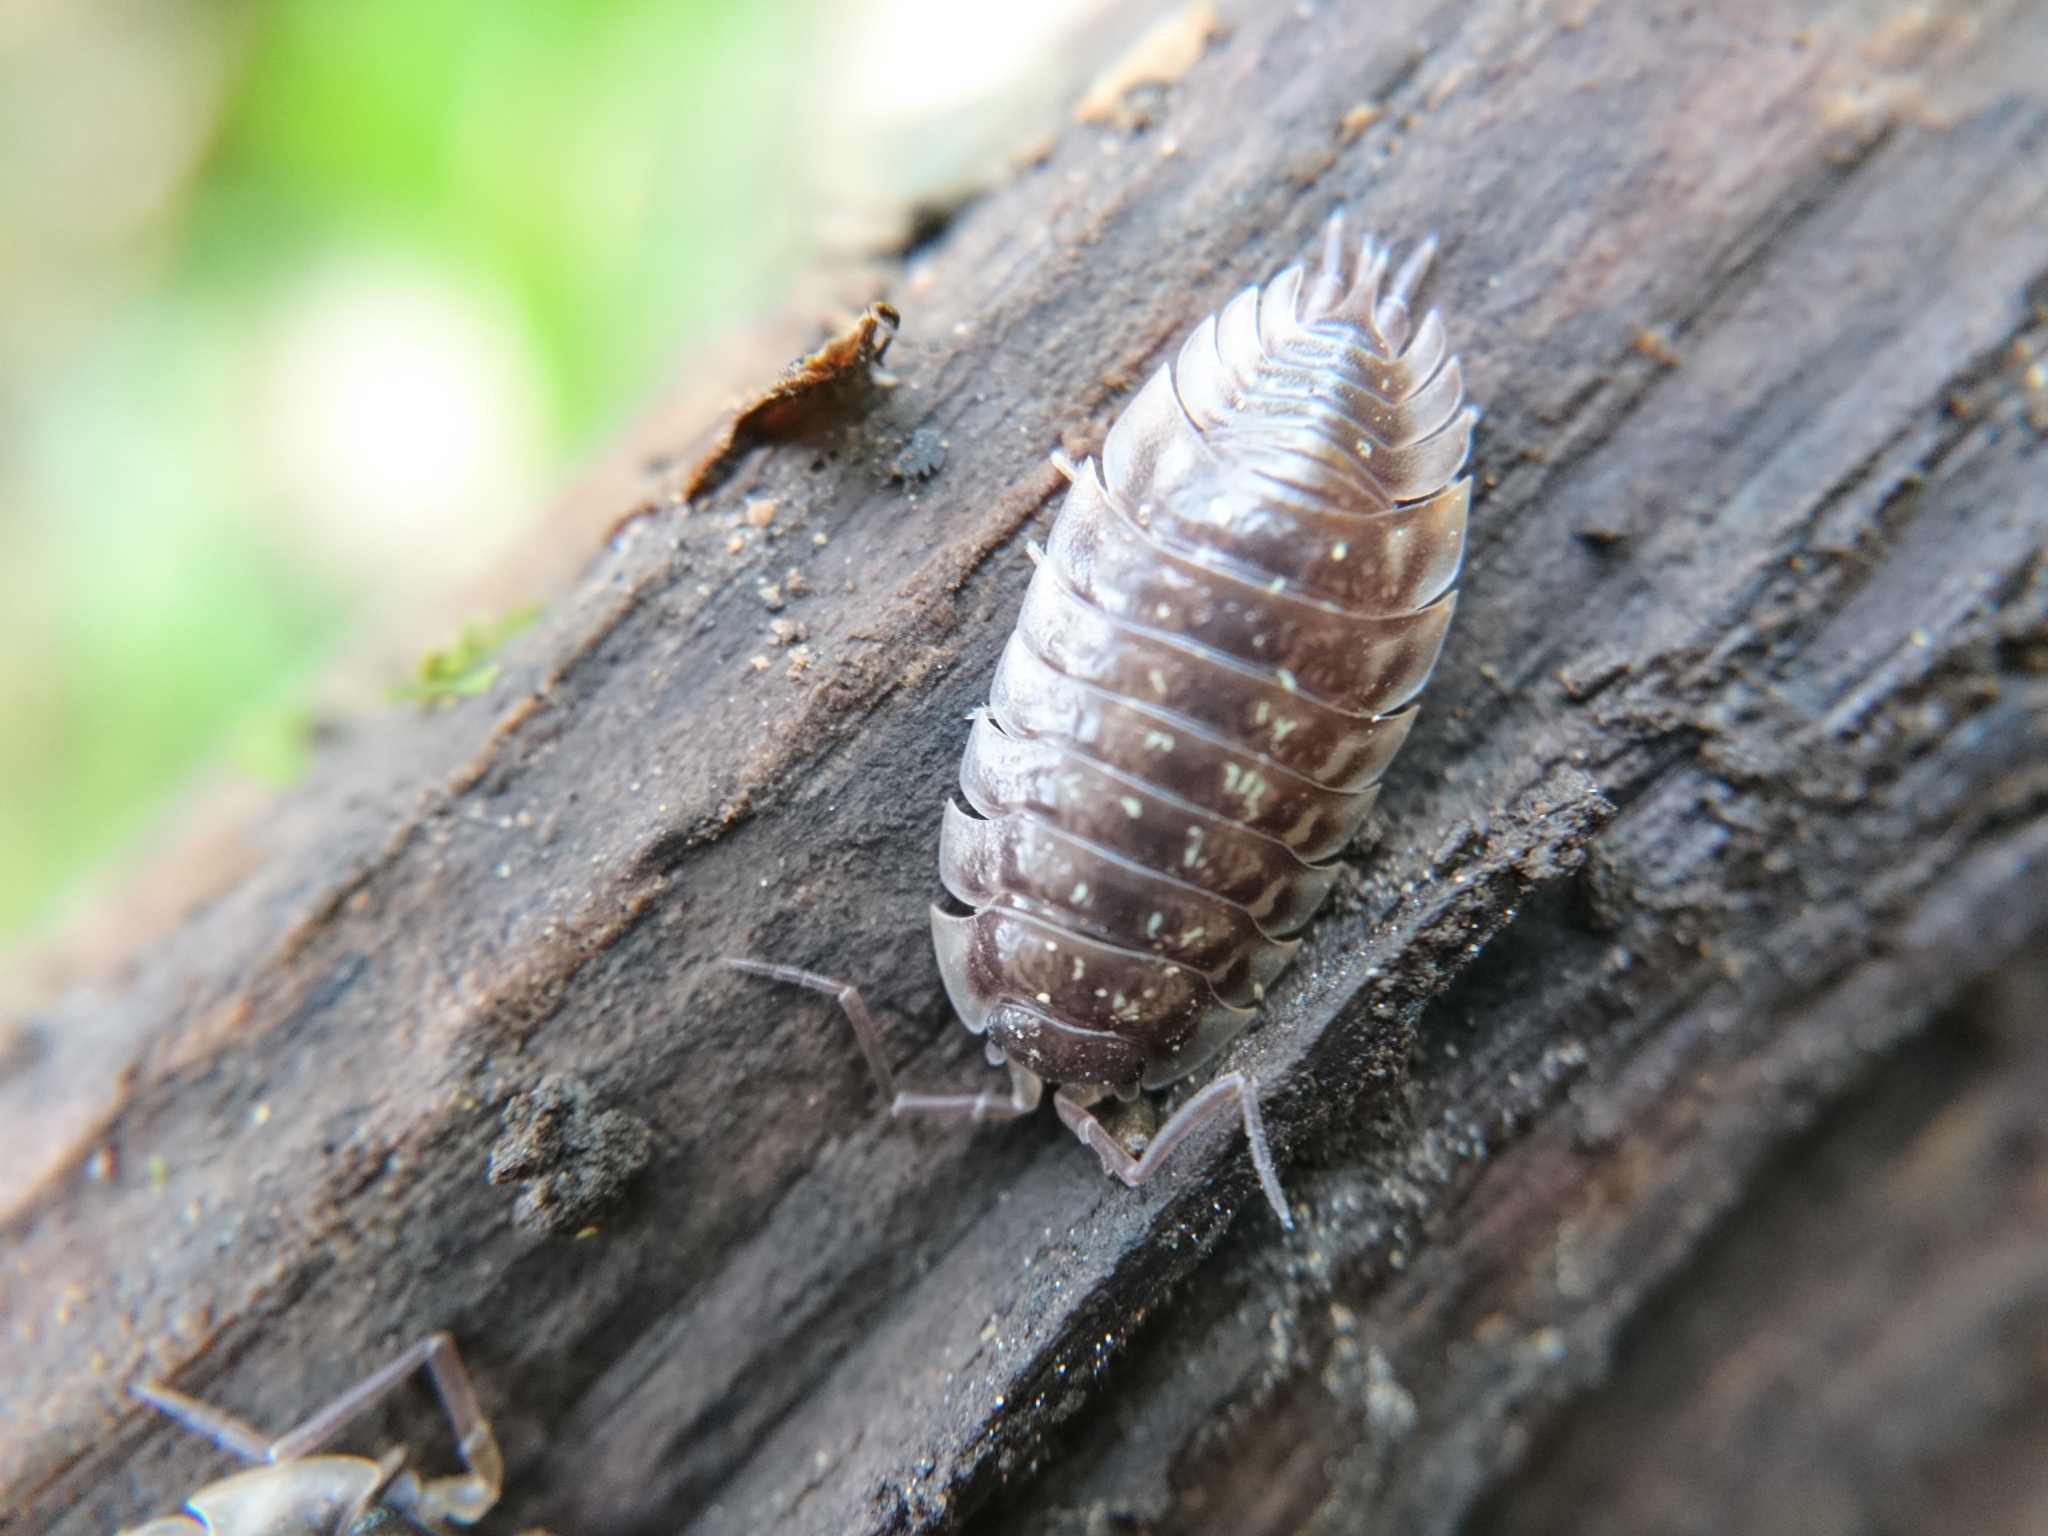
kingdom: Animalia
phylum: Arthropoda
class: Malacostraca
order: Isopoda
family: Oniscidae
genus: Oniscus
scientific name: Oniscus asellus
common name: Common shiny woodlouse
